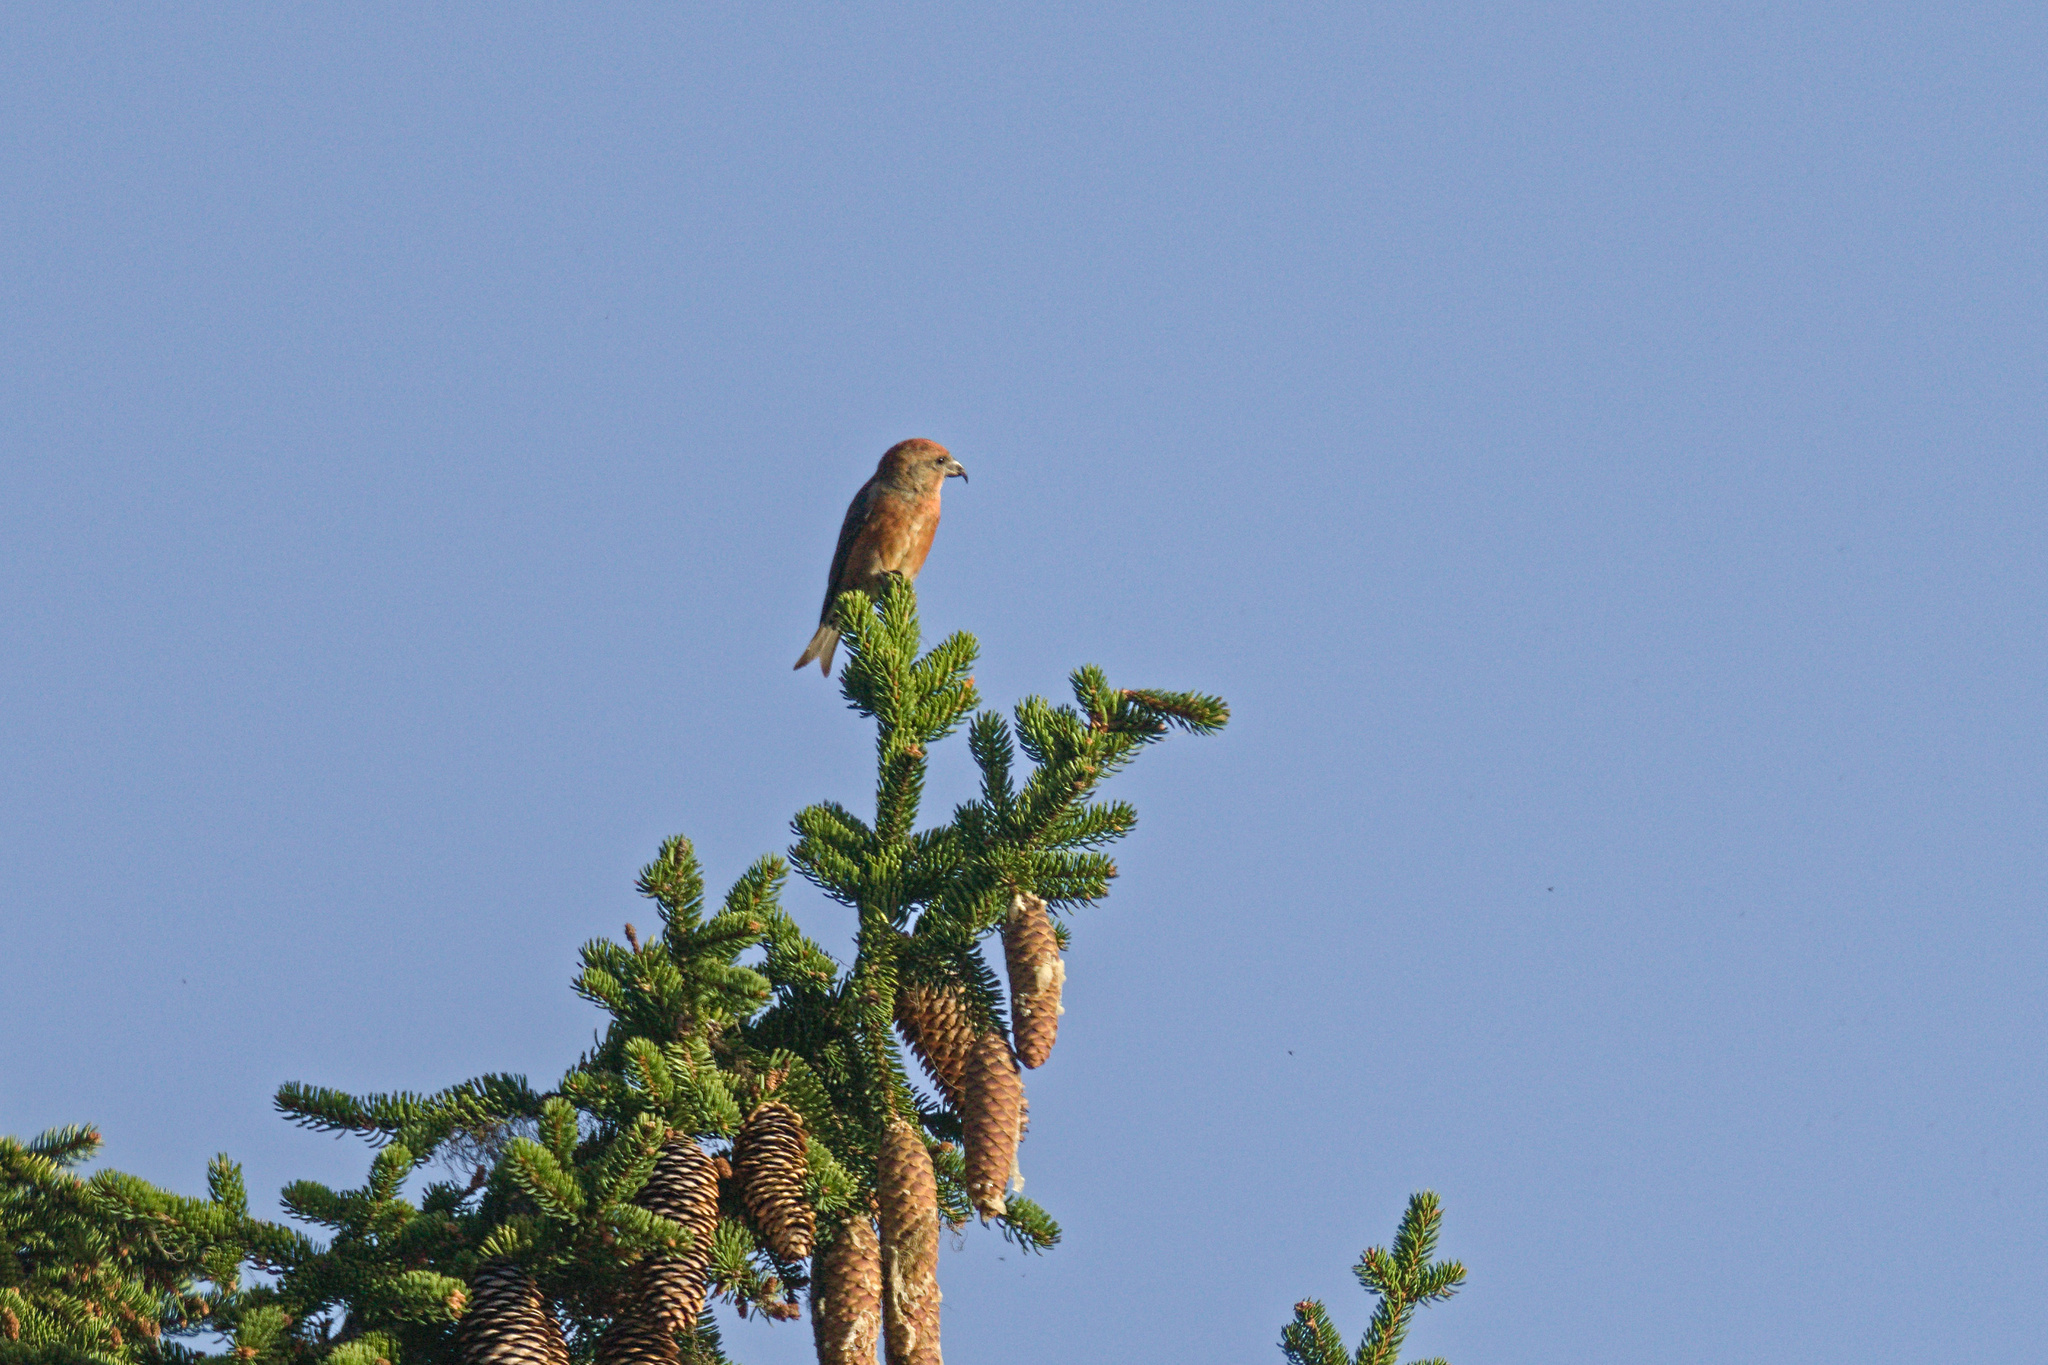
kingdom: Animalia
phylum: Chordata
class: Aves
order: Passeriformes
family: Fringillidae
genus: Loxia
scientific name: Loxia curvirostra
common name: Red crossbill
